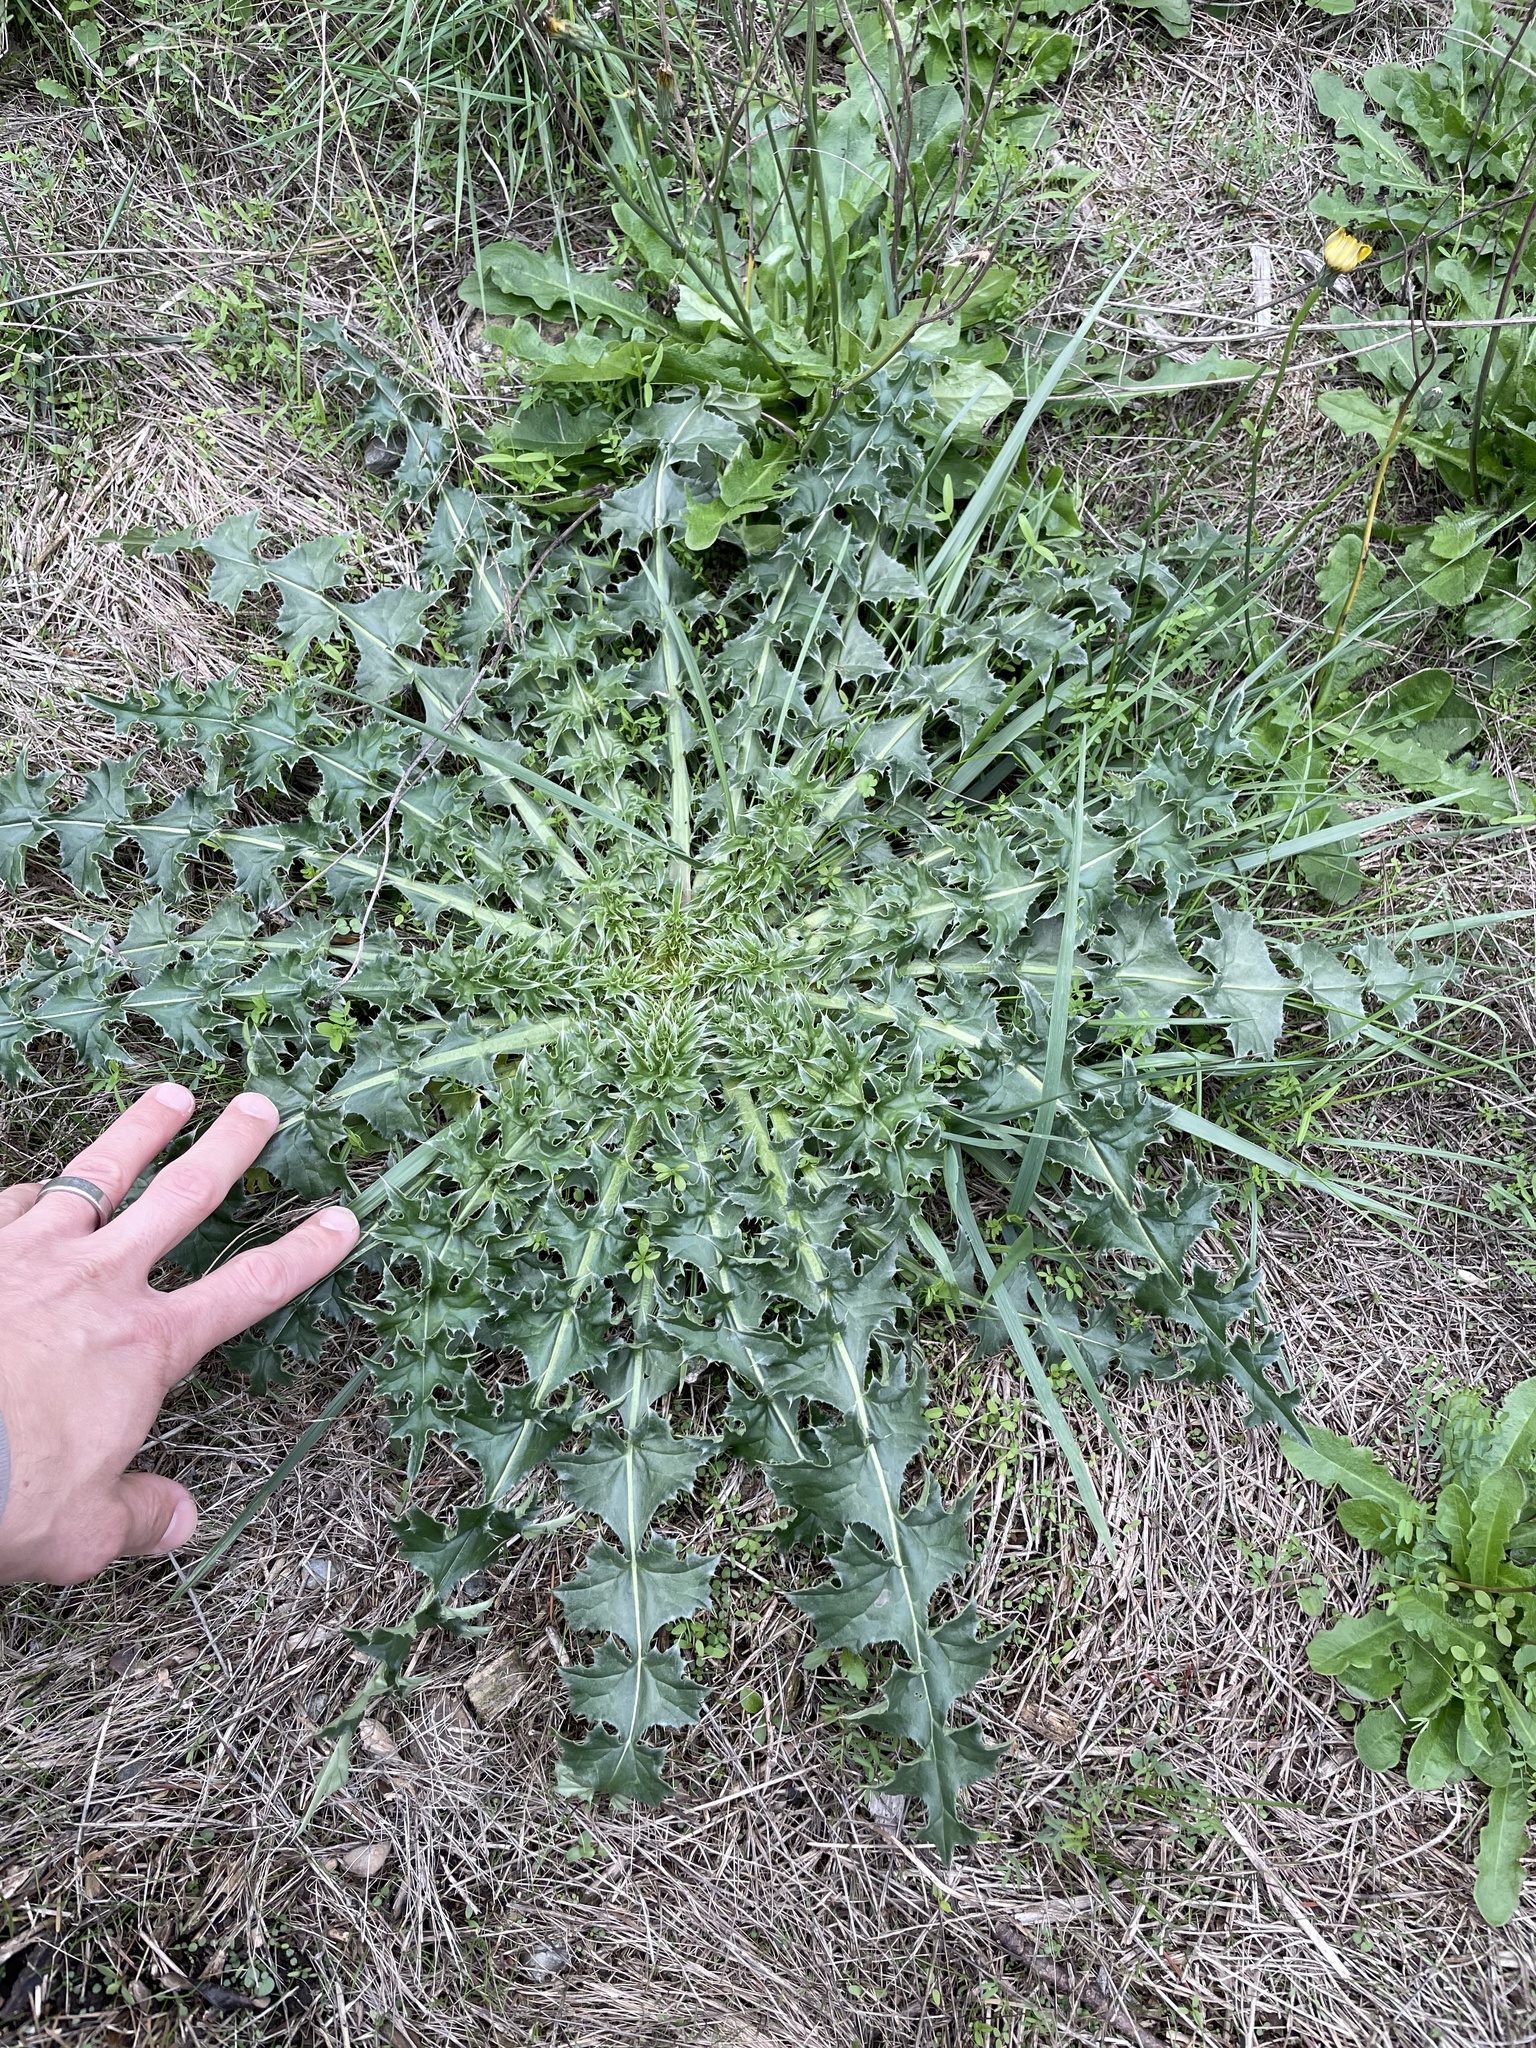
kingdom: Plantae
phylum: Tracheophyta
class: Magnoliopsida
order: Asterales
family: Asteraceae
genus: Carduus
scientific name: Carduus acanthoides
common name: Plumeless thistle
